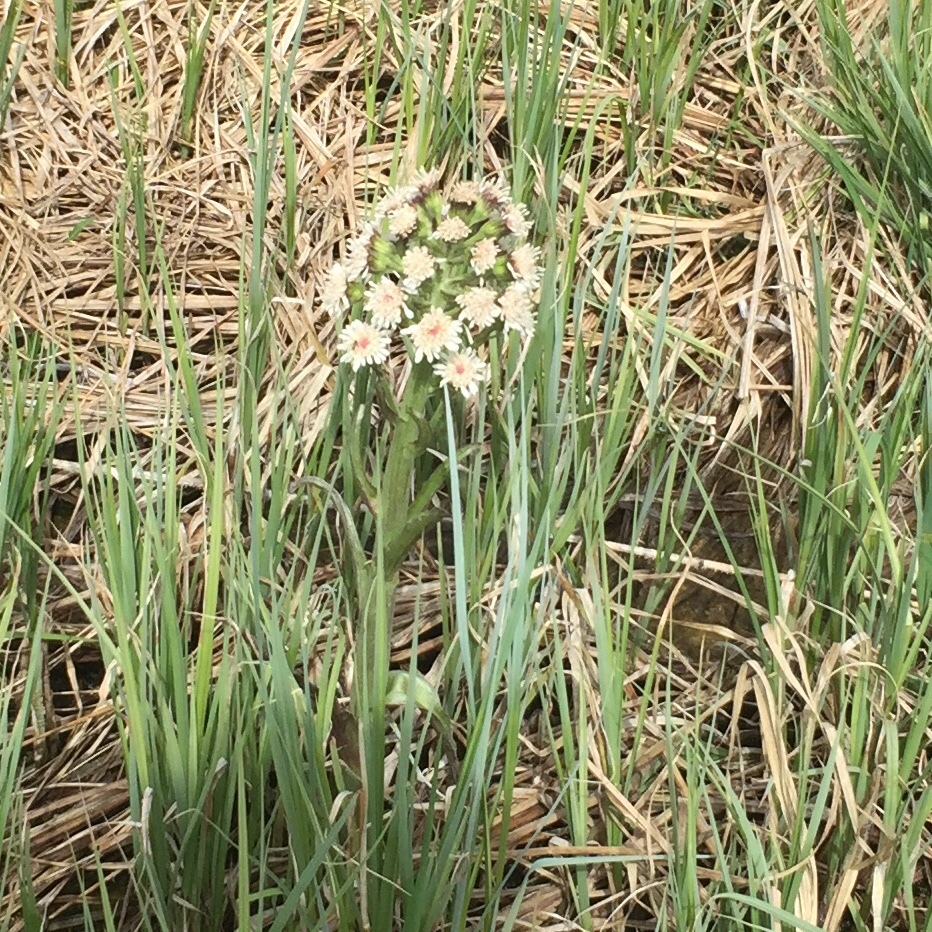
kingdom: Plantae
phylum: Tracheophyta
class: Magnoliopsida
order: Asterales
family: Asteraceae
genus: Petasites
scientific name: Petasites frigidus
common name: Arctic butterbur
